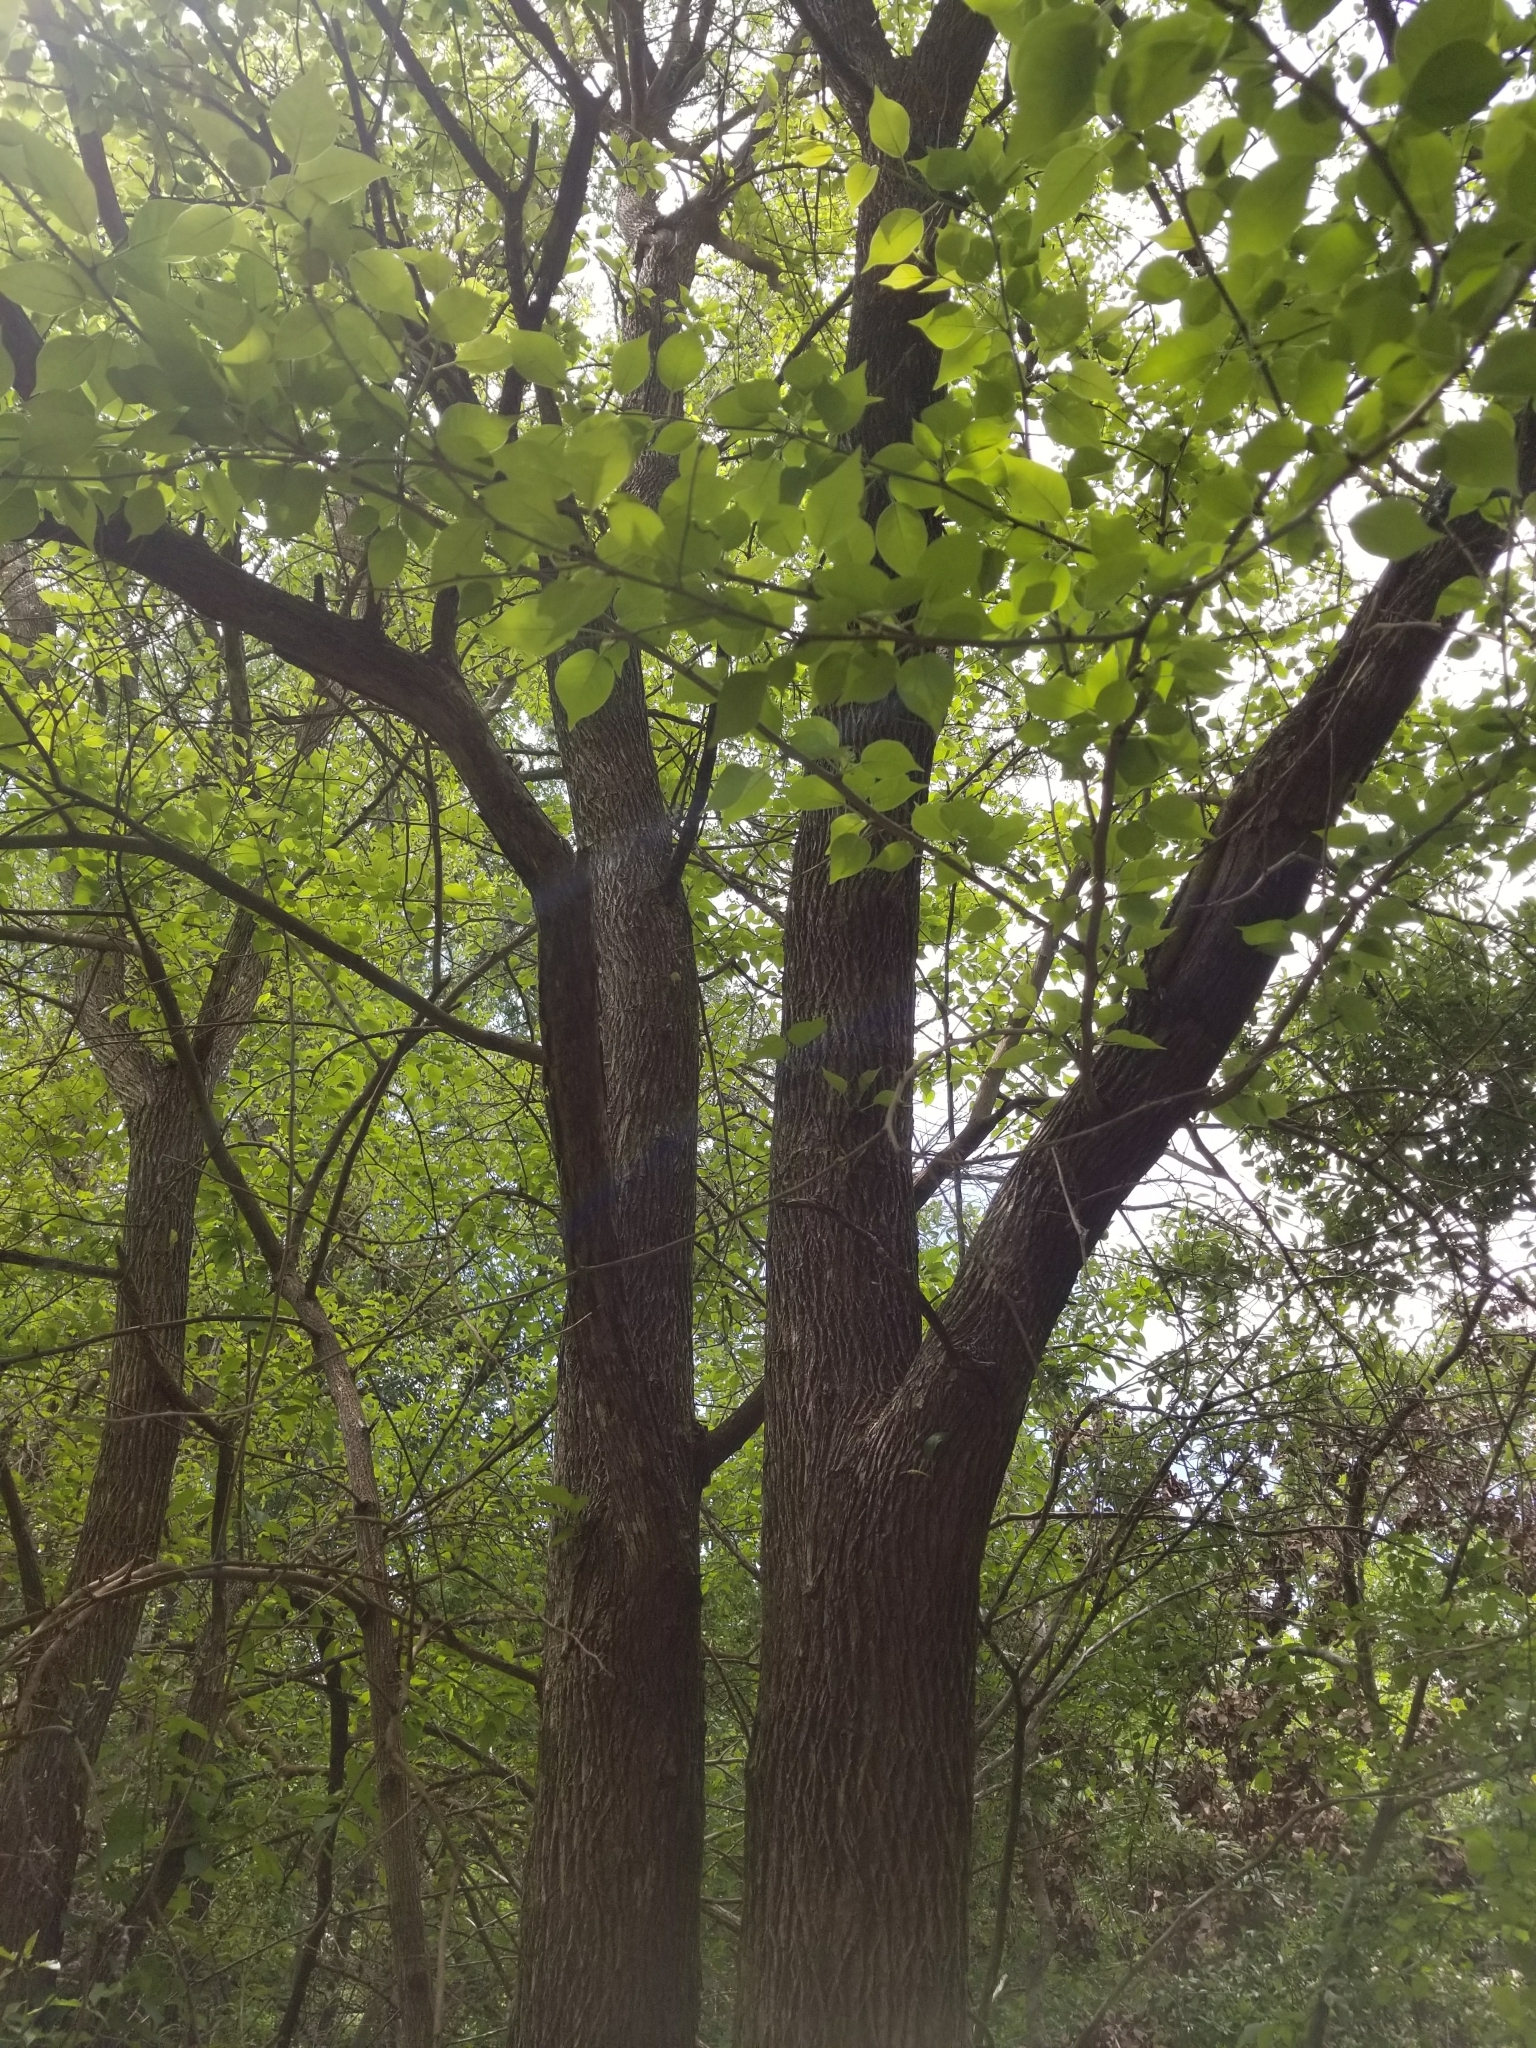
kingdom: Plantae
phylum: Tracheophyta
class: Magnoliopsida
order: Rosales
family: Moraceae
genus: Maclura
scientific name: Maclura pomifera
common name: Osage-orange
